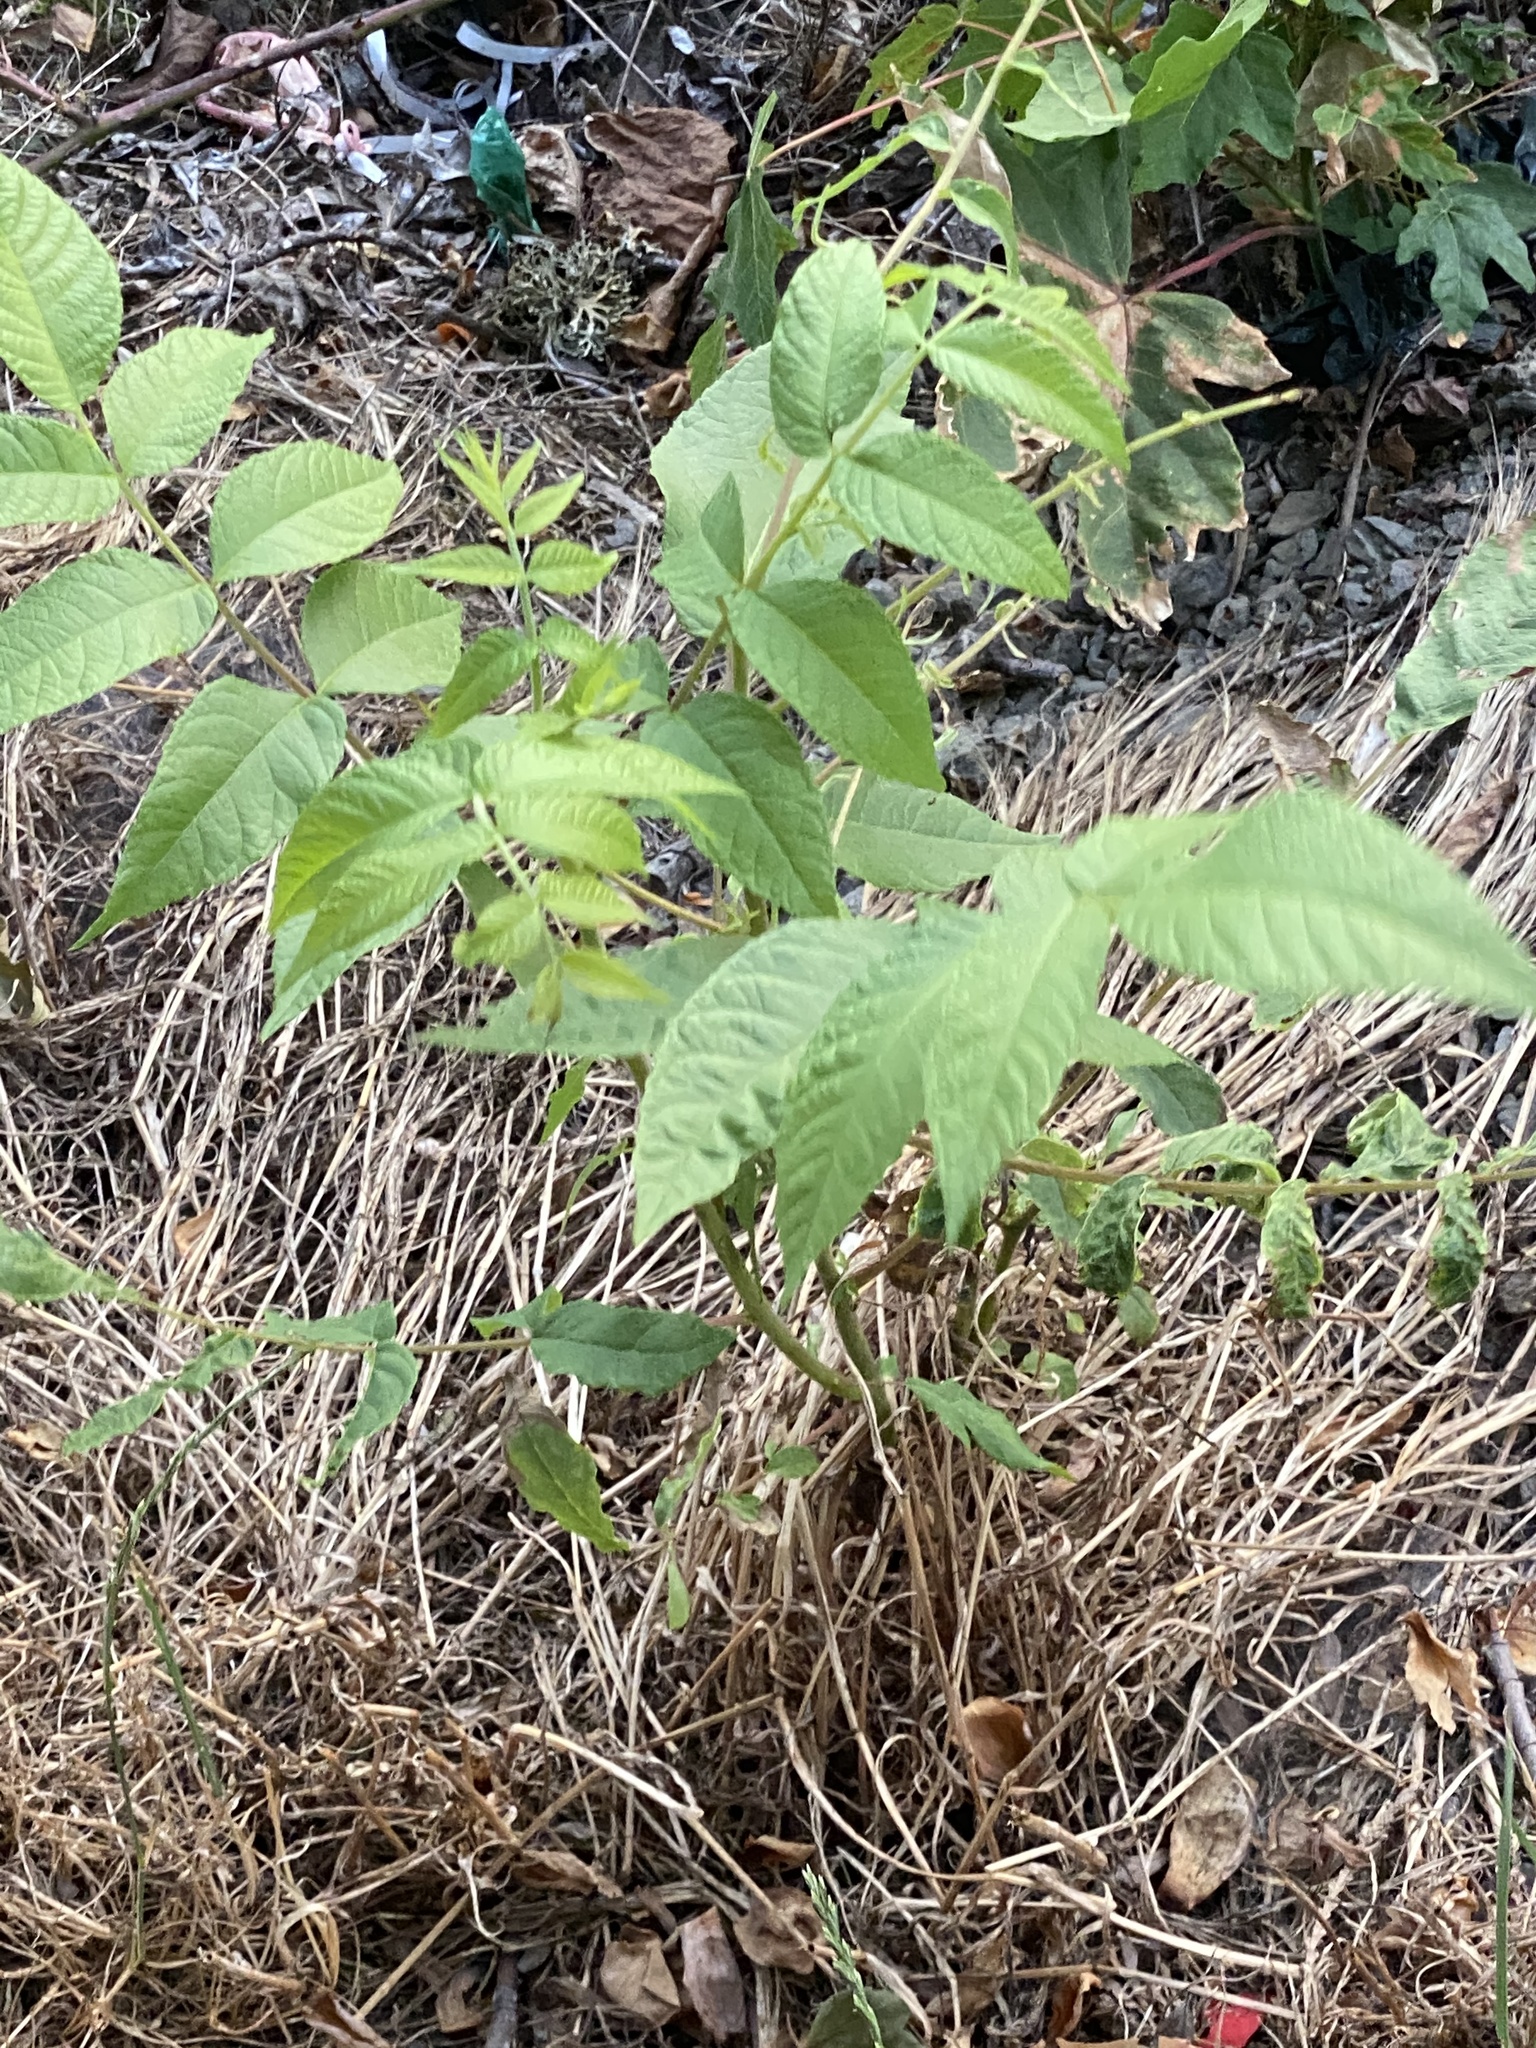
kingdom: Plantae
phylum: Tracheophyta
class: Magnoliopsida
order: Fagales
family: Juglandaceae
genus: Juglans
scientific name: Juglans nigra
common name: Black walnut
